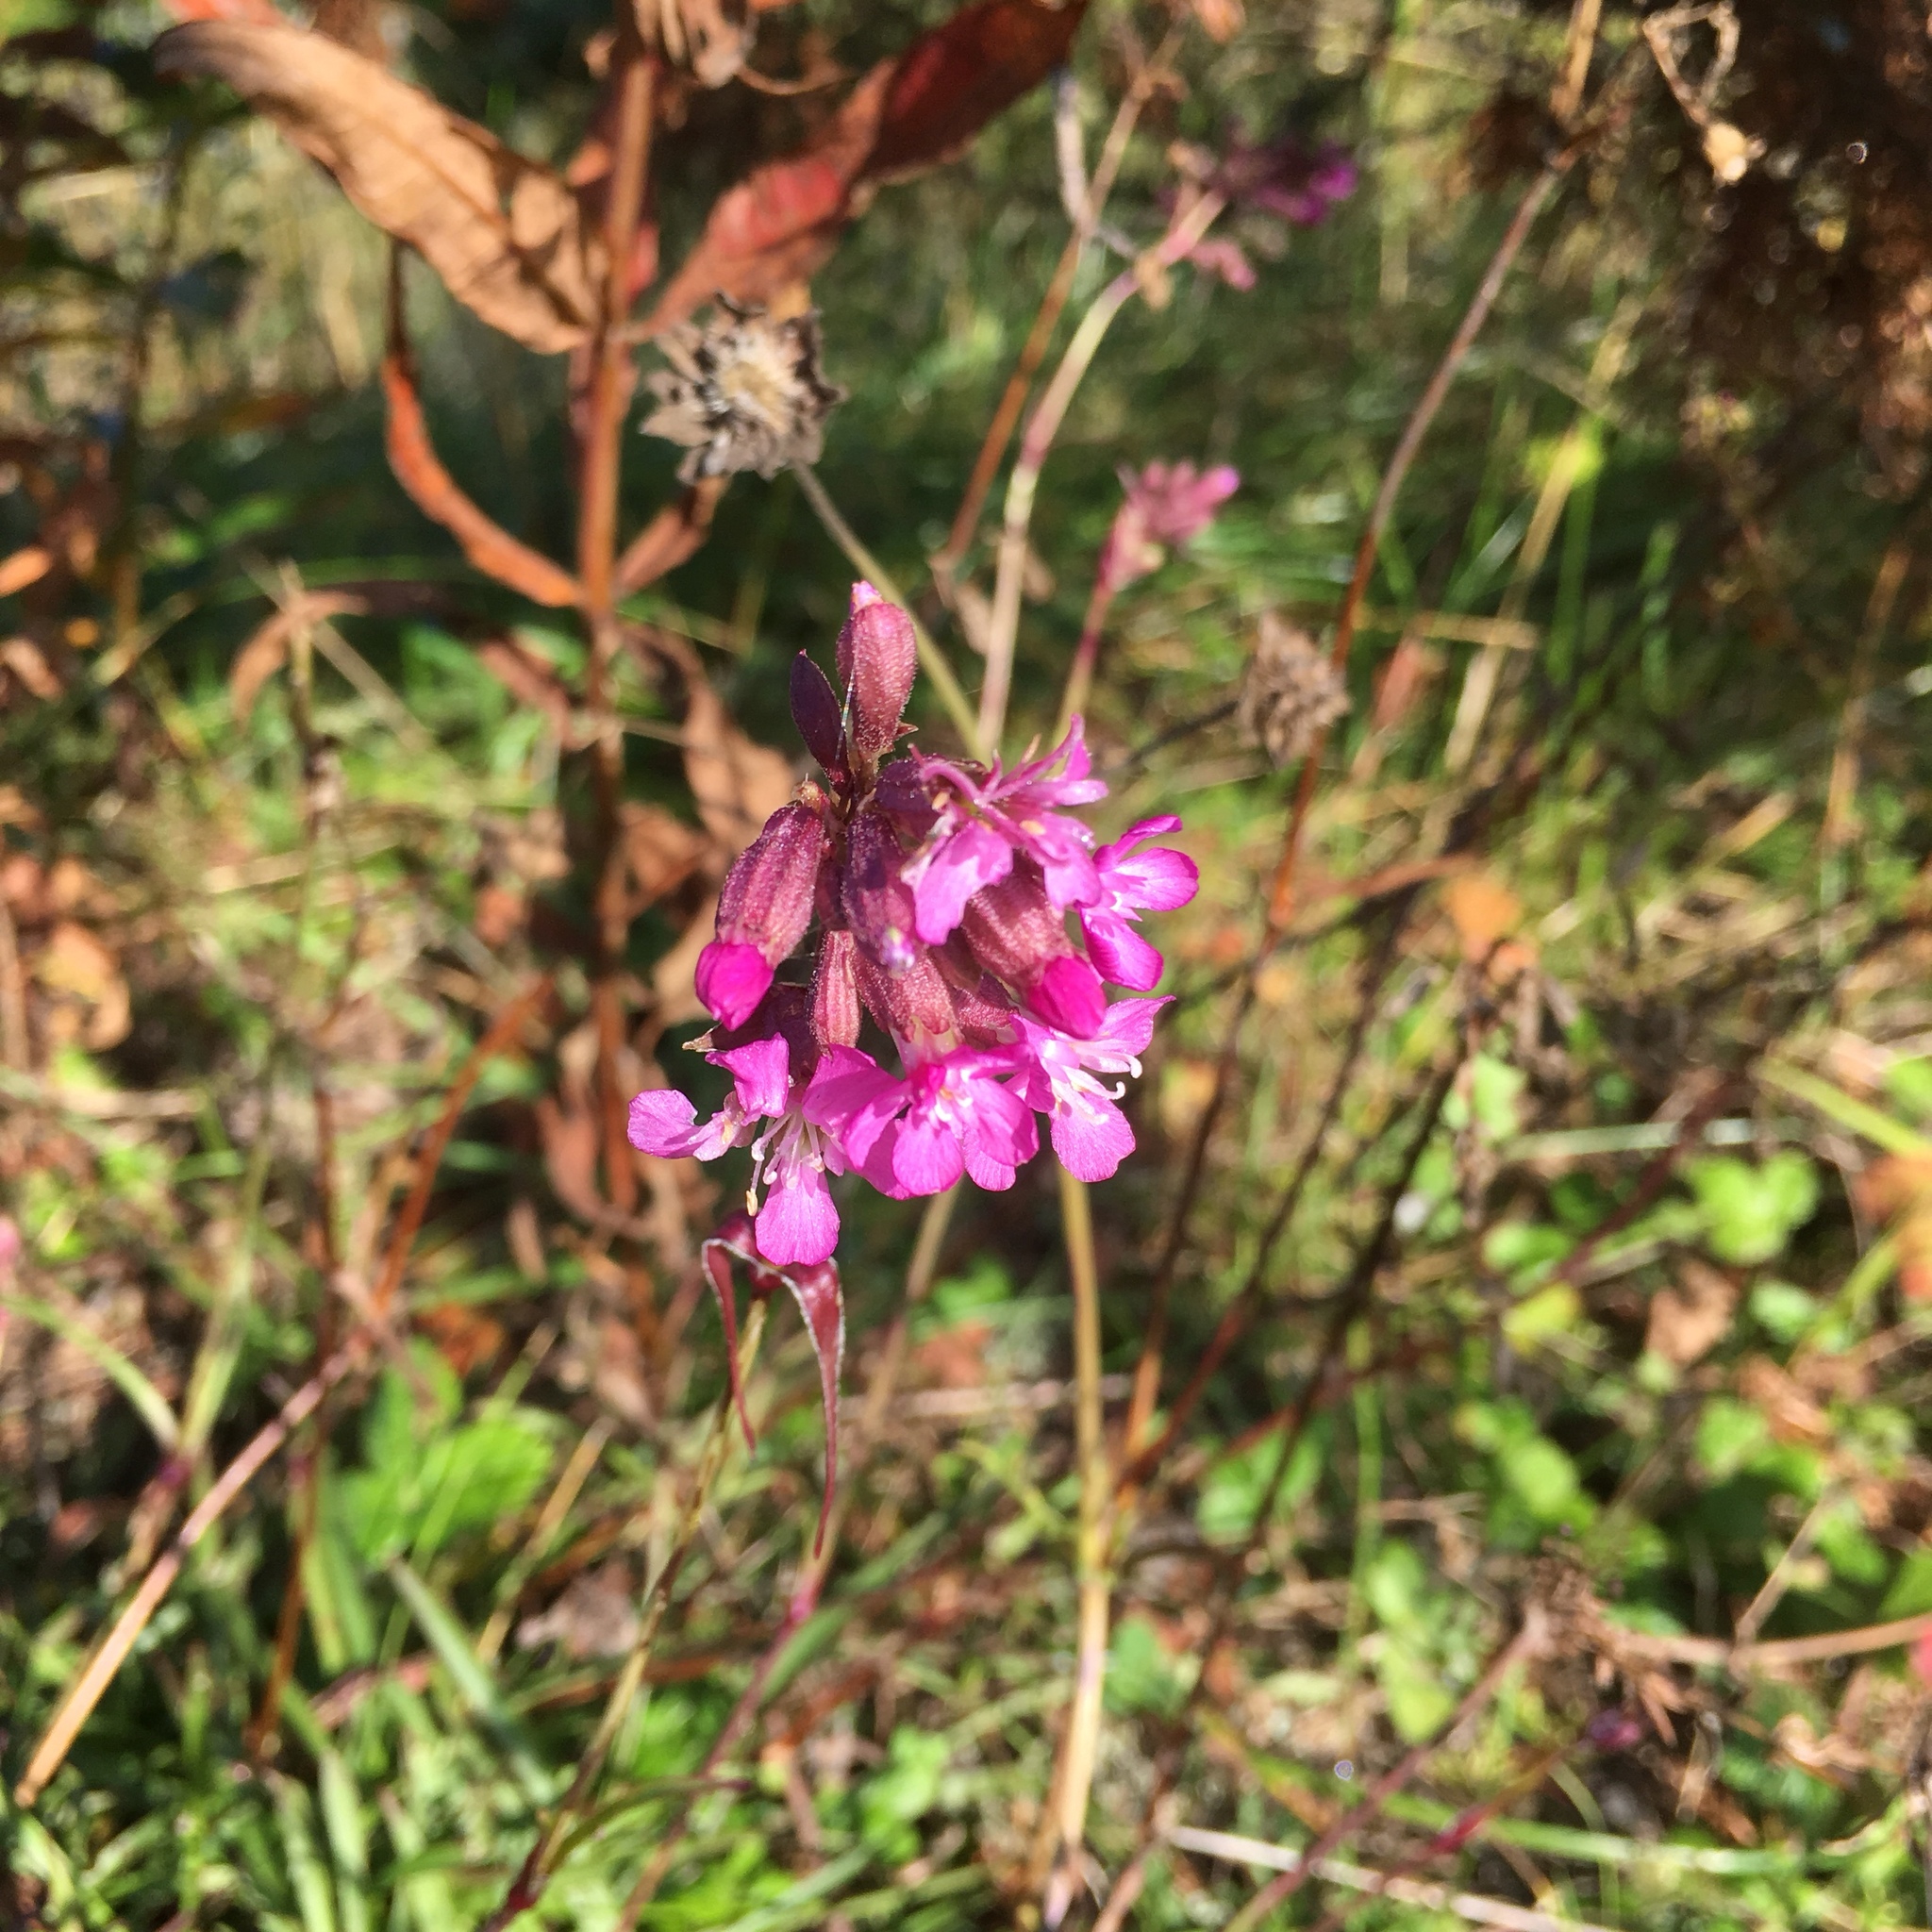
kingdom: Plantae
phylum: Tracheophyta
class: Magnoliopsida
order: Caryophyllales
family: Caryophyllaceae
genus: Viscaria
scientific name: Viscaria vulgaris
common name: Clammy campion
